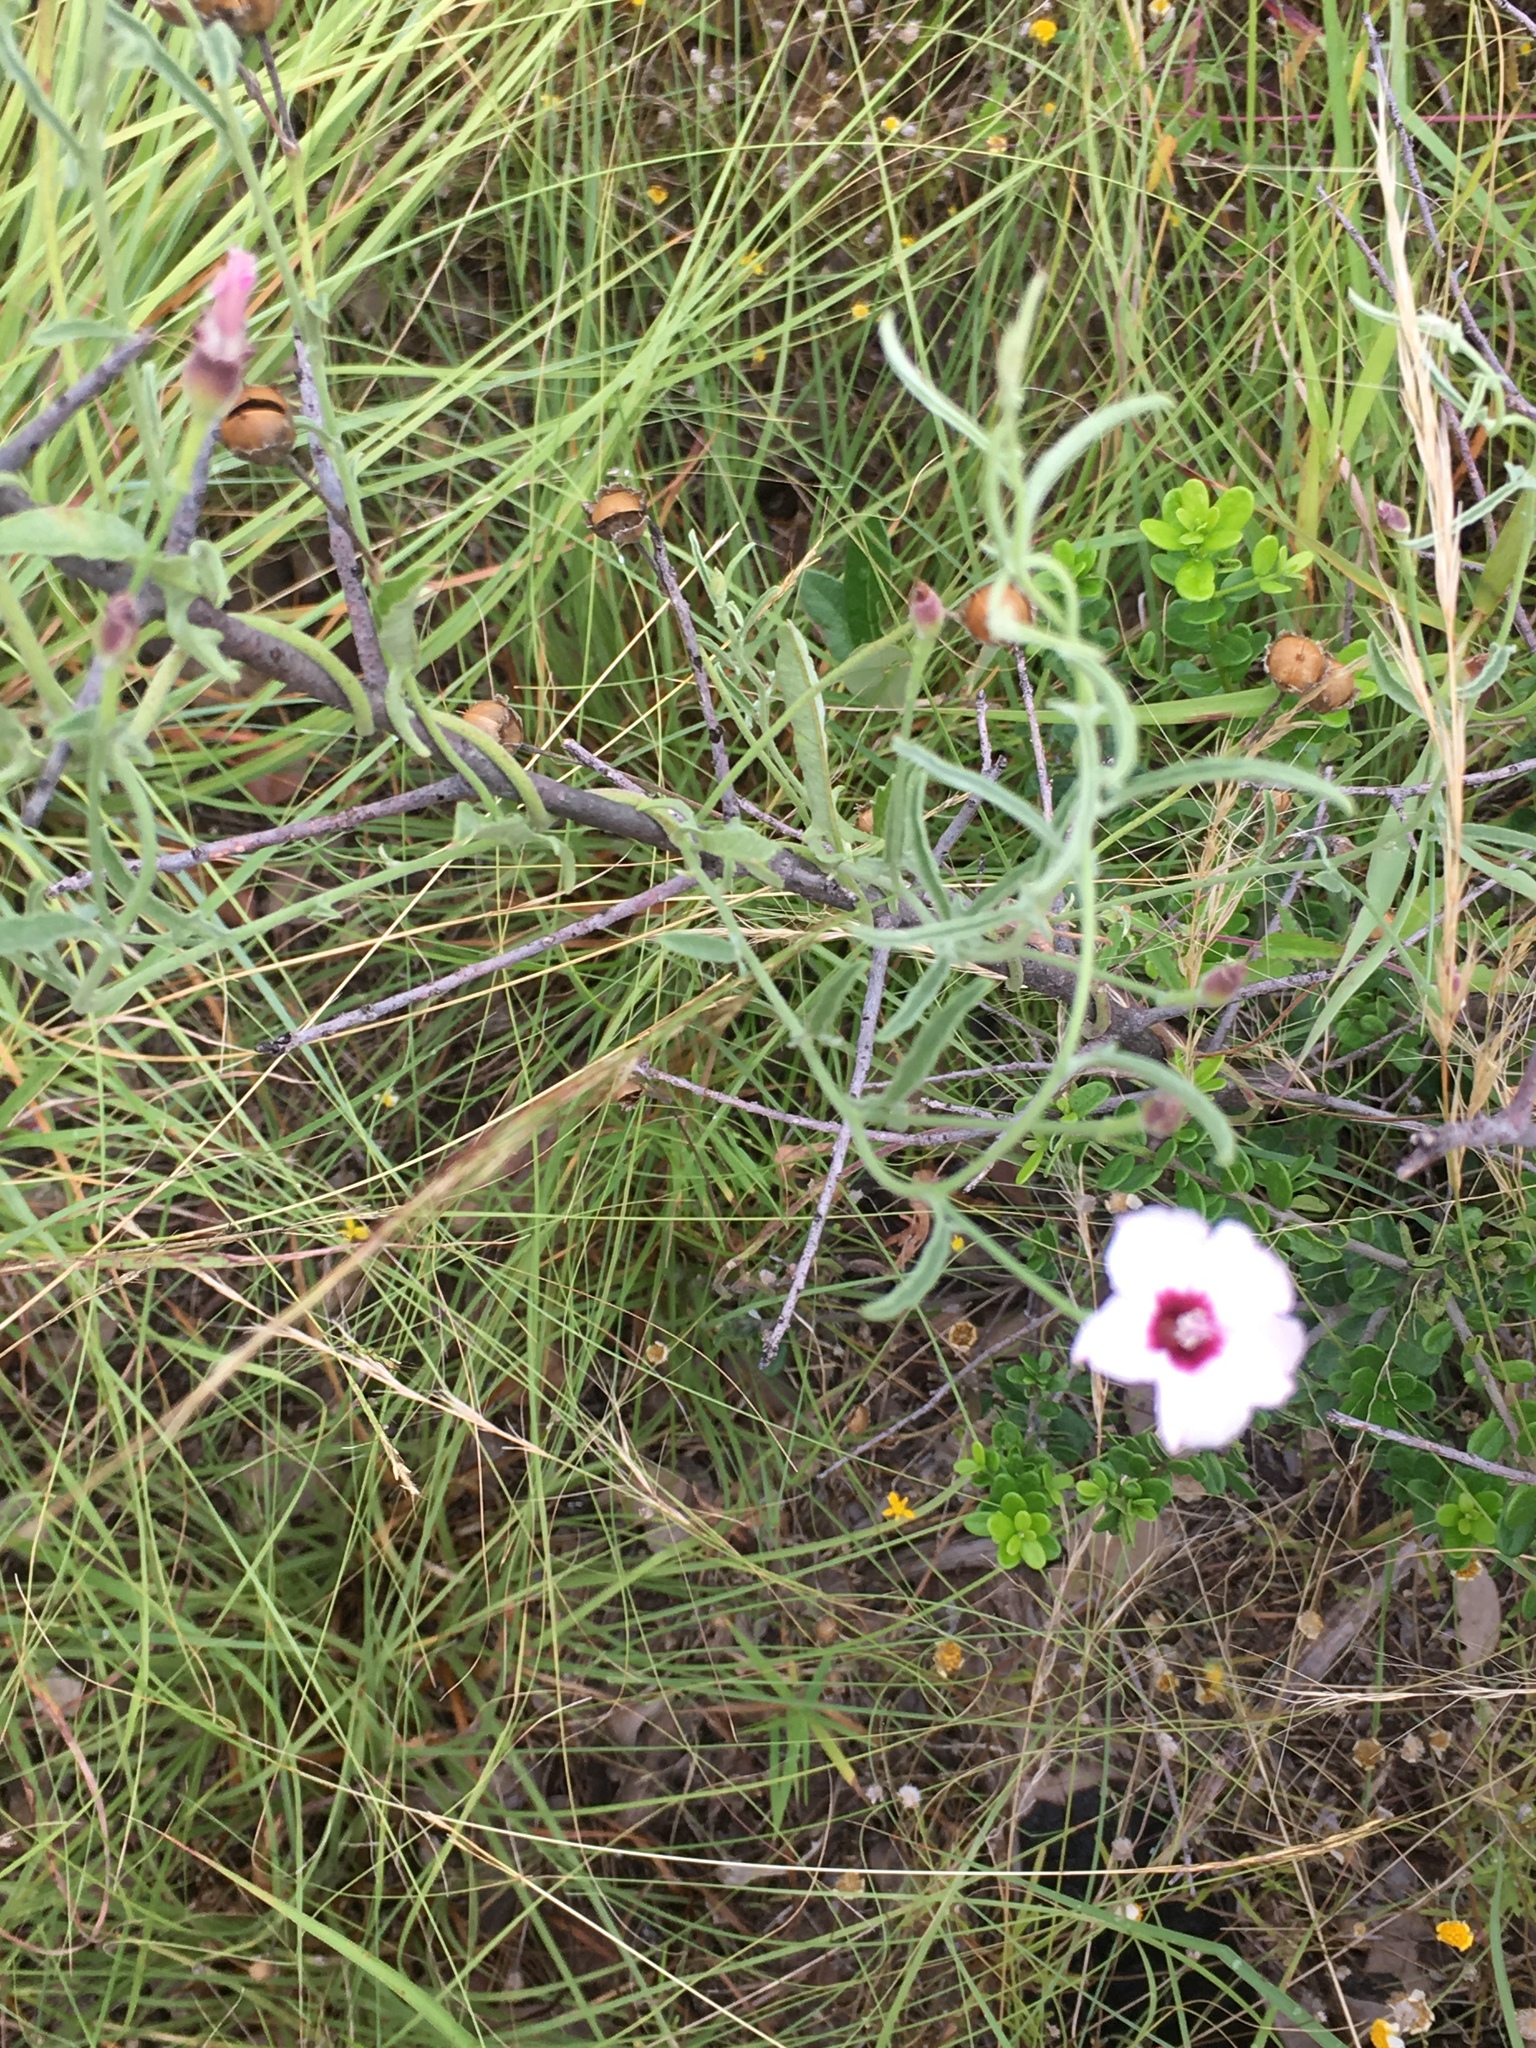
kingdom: Plantae
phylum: Tracheophyta
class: Magnoliopsida
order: Solanales
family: Convolvulaceae
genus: Convolvulus
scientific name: Convolvulus equitans
